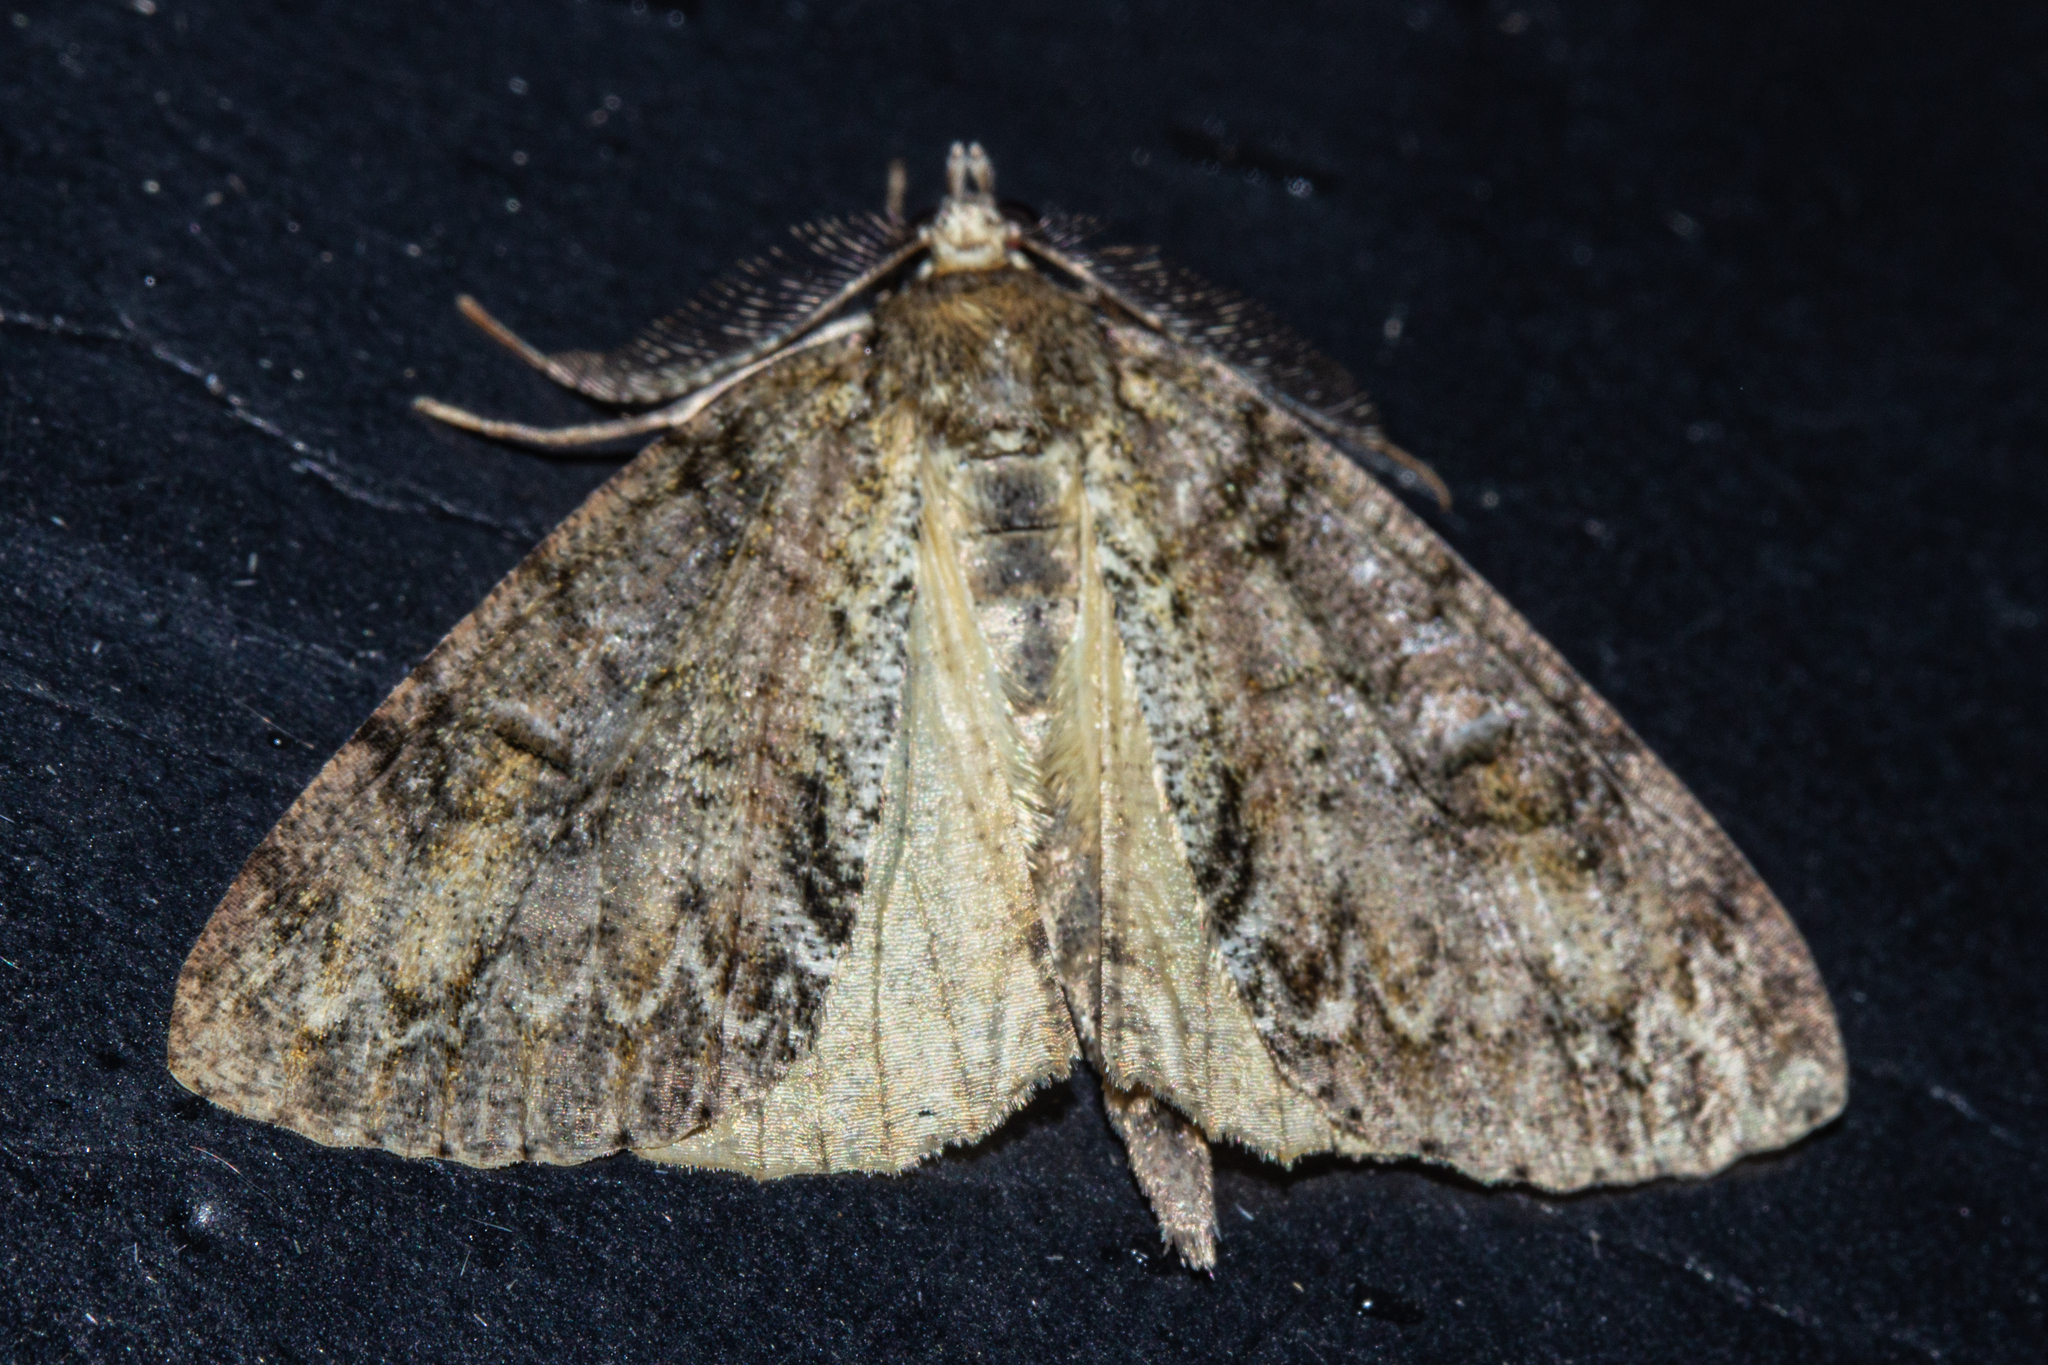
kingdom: Animalia
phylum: Arthropoda
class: Insecta
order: Lepidoptera
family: Geometridae
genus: Pseudocoremia
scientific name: Pseudocoremia suavis
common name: Common forest looper
